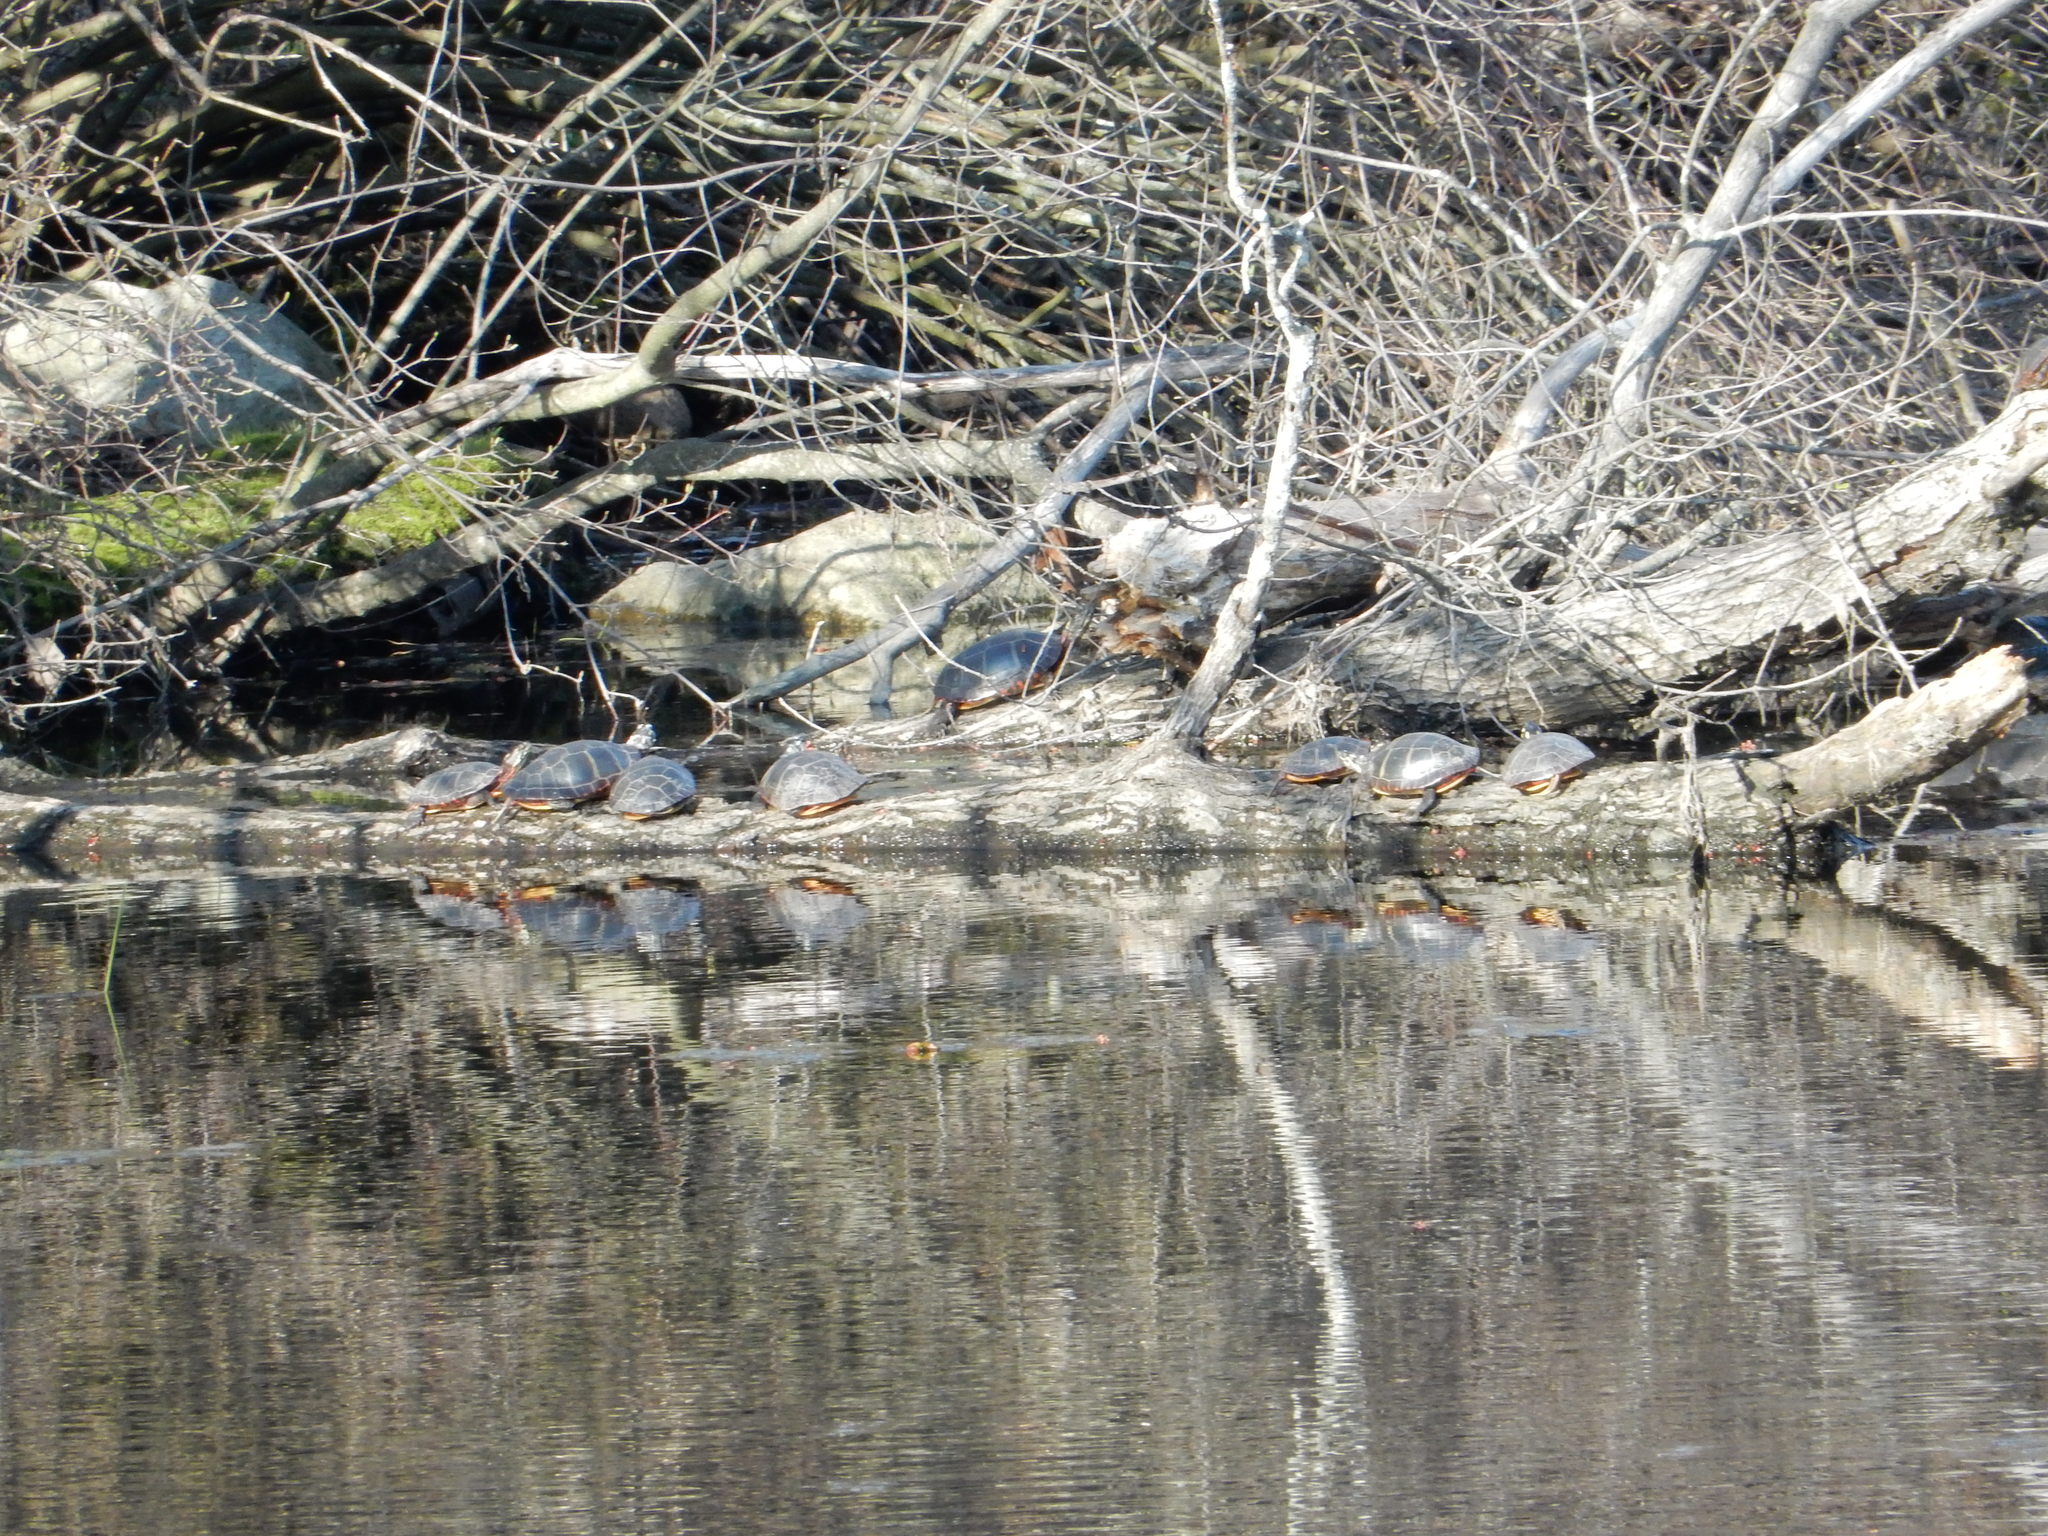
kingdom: Animalia
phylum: Chordata
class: Testudines
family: Emydidae
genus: Chrysemys
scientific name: Chrysemys picta
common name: Painted turtle
